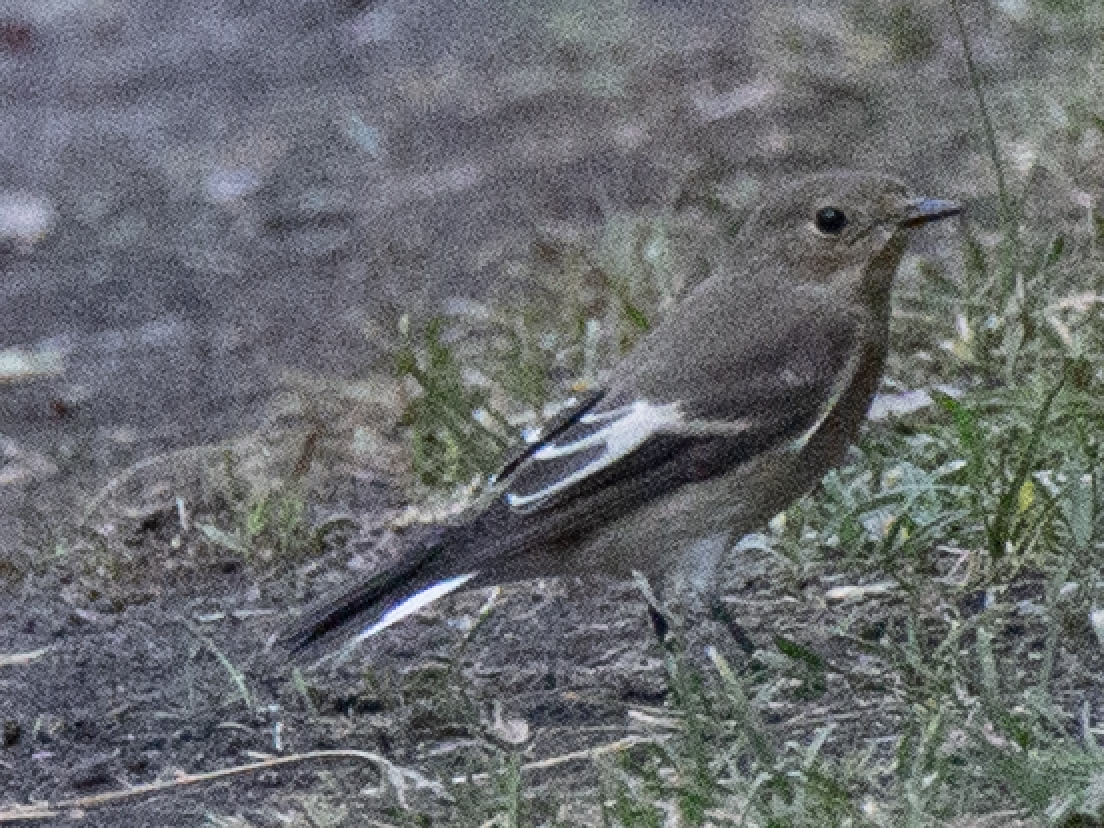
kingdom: Animalia
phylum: Chordata
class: Aves
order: Passeriformes
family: Muscicapidae
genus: Ficedula
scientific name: Ficedula hypoleuca
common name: European pied flycatcher
